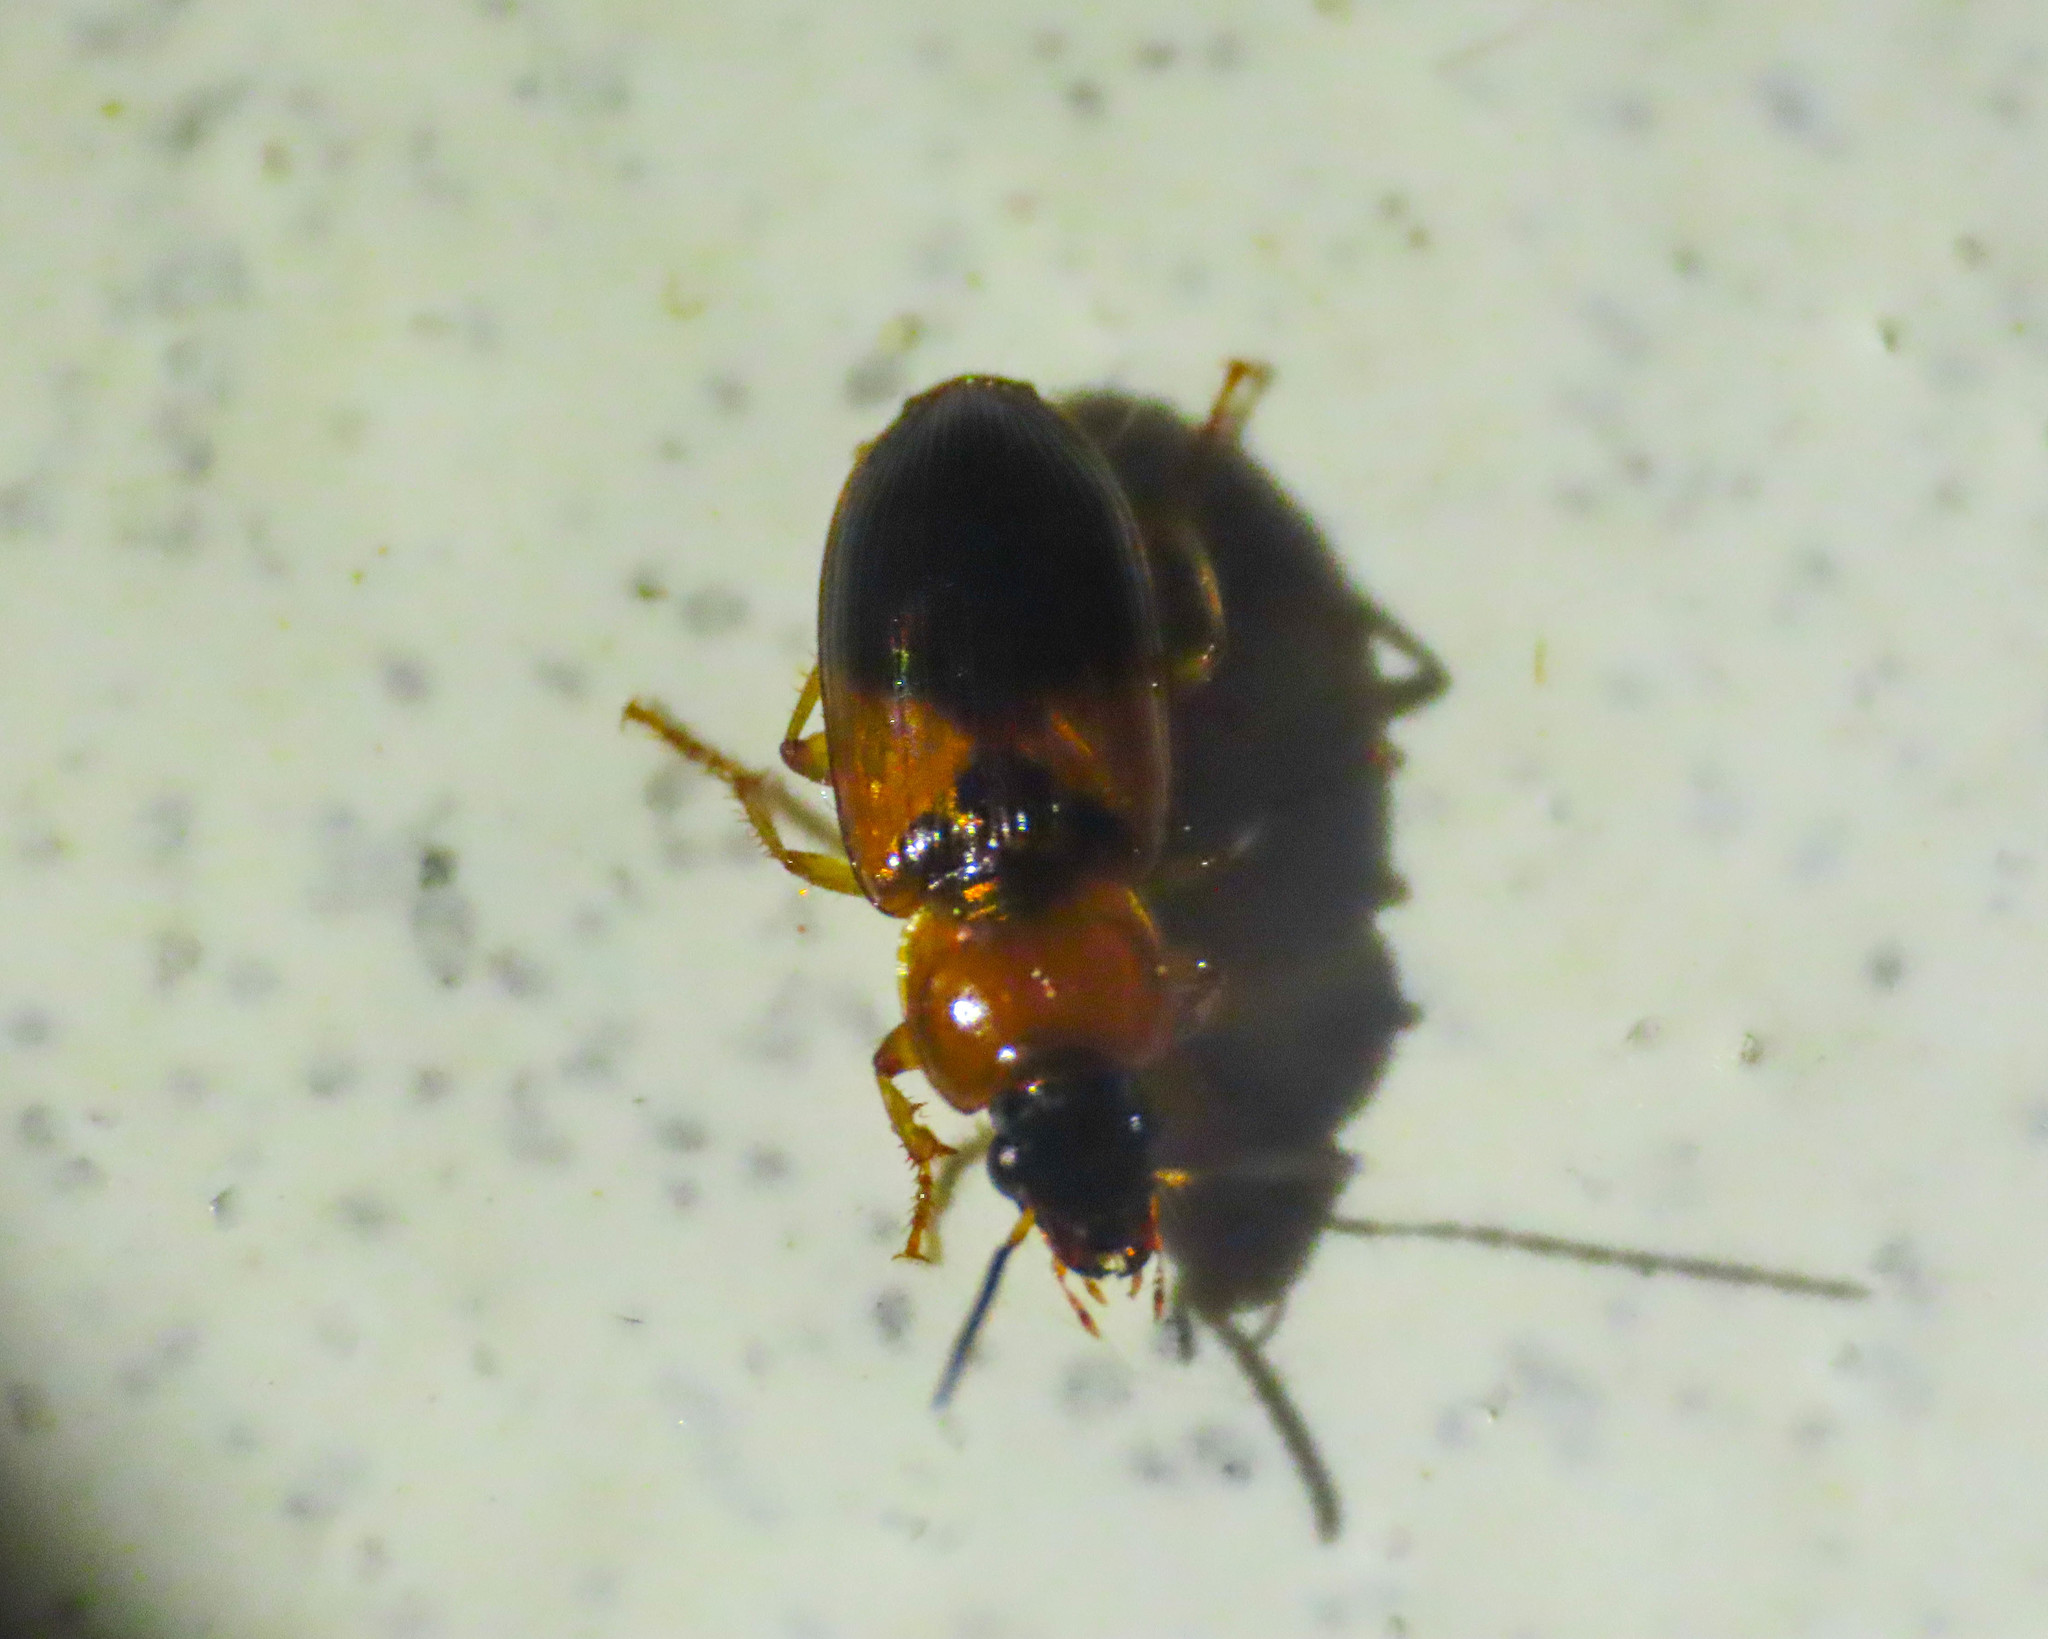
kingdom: Animalia
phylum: Arthropoda
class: Insecta
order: Coleoptera
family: Carabidae
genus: Stenolophus
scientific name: Stenolophus teutonus
